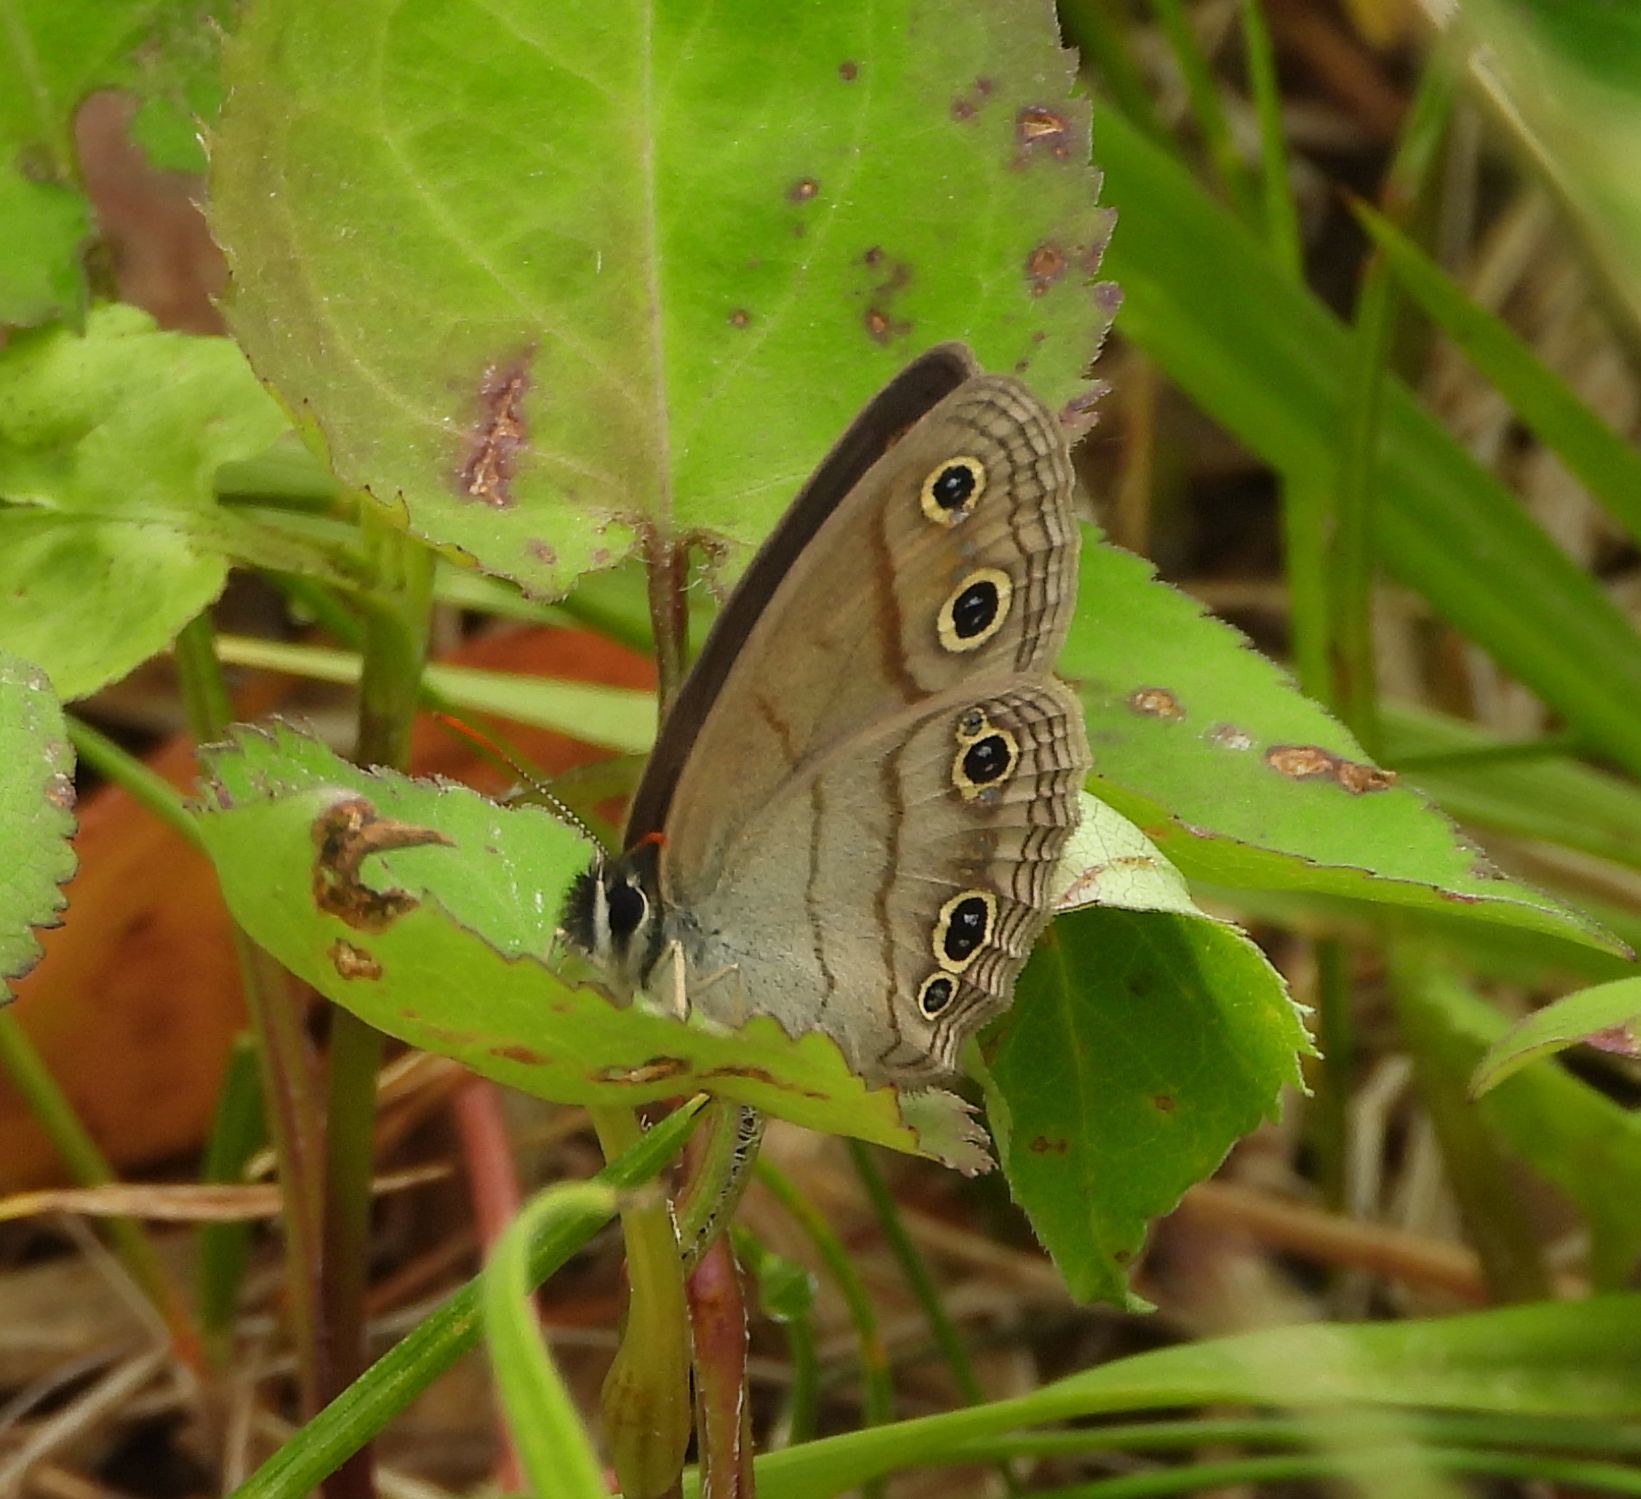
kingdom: Animalia
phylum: Arthropoda
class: Insecta
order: Lepidoptera
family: Nymphalidae
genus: Euptychia
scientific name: Euptychia cymela
